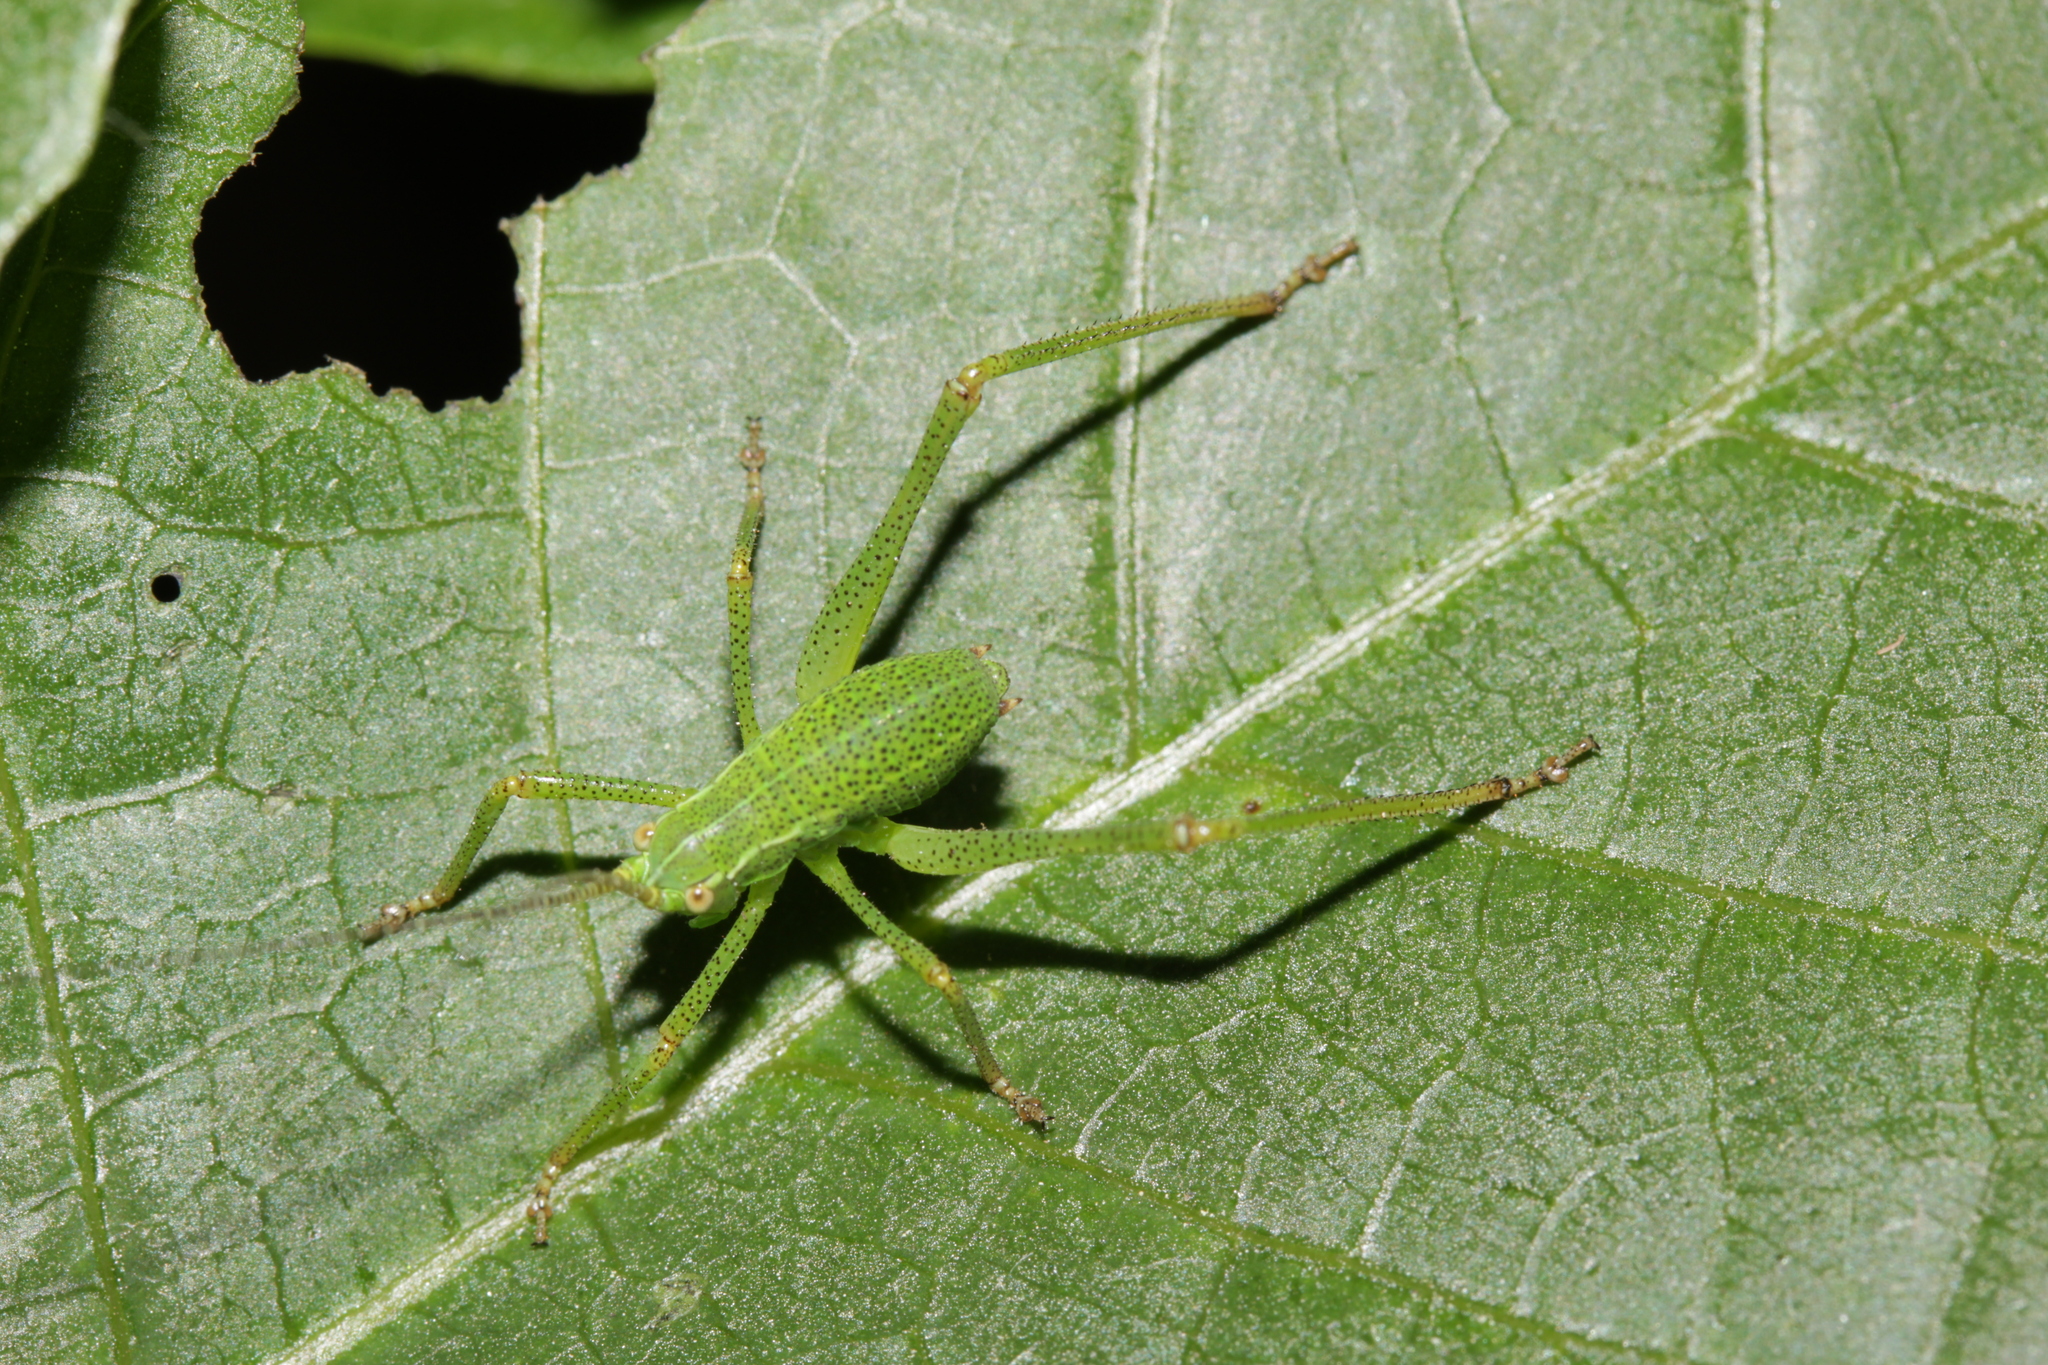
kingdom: Animalia
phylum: Arthropoda
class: Insecta
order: Orthoptera
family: Tettigoniidae
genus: Barbitistes
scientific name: Barbitistes serricauda
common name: Saw-tailed bush-cricket
